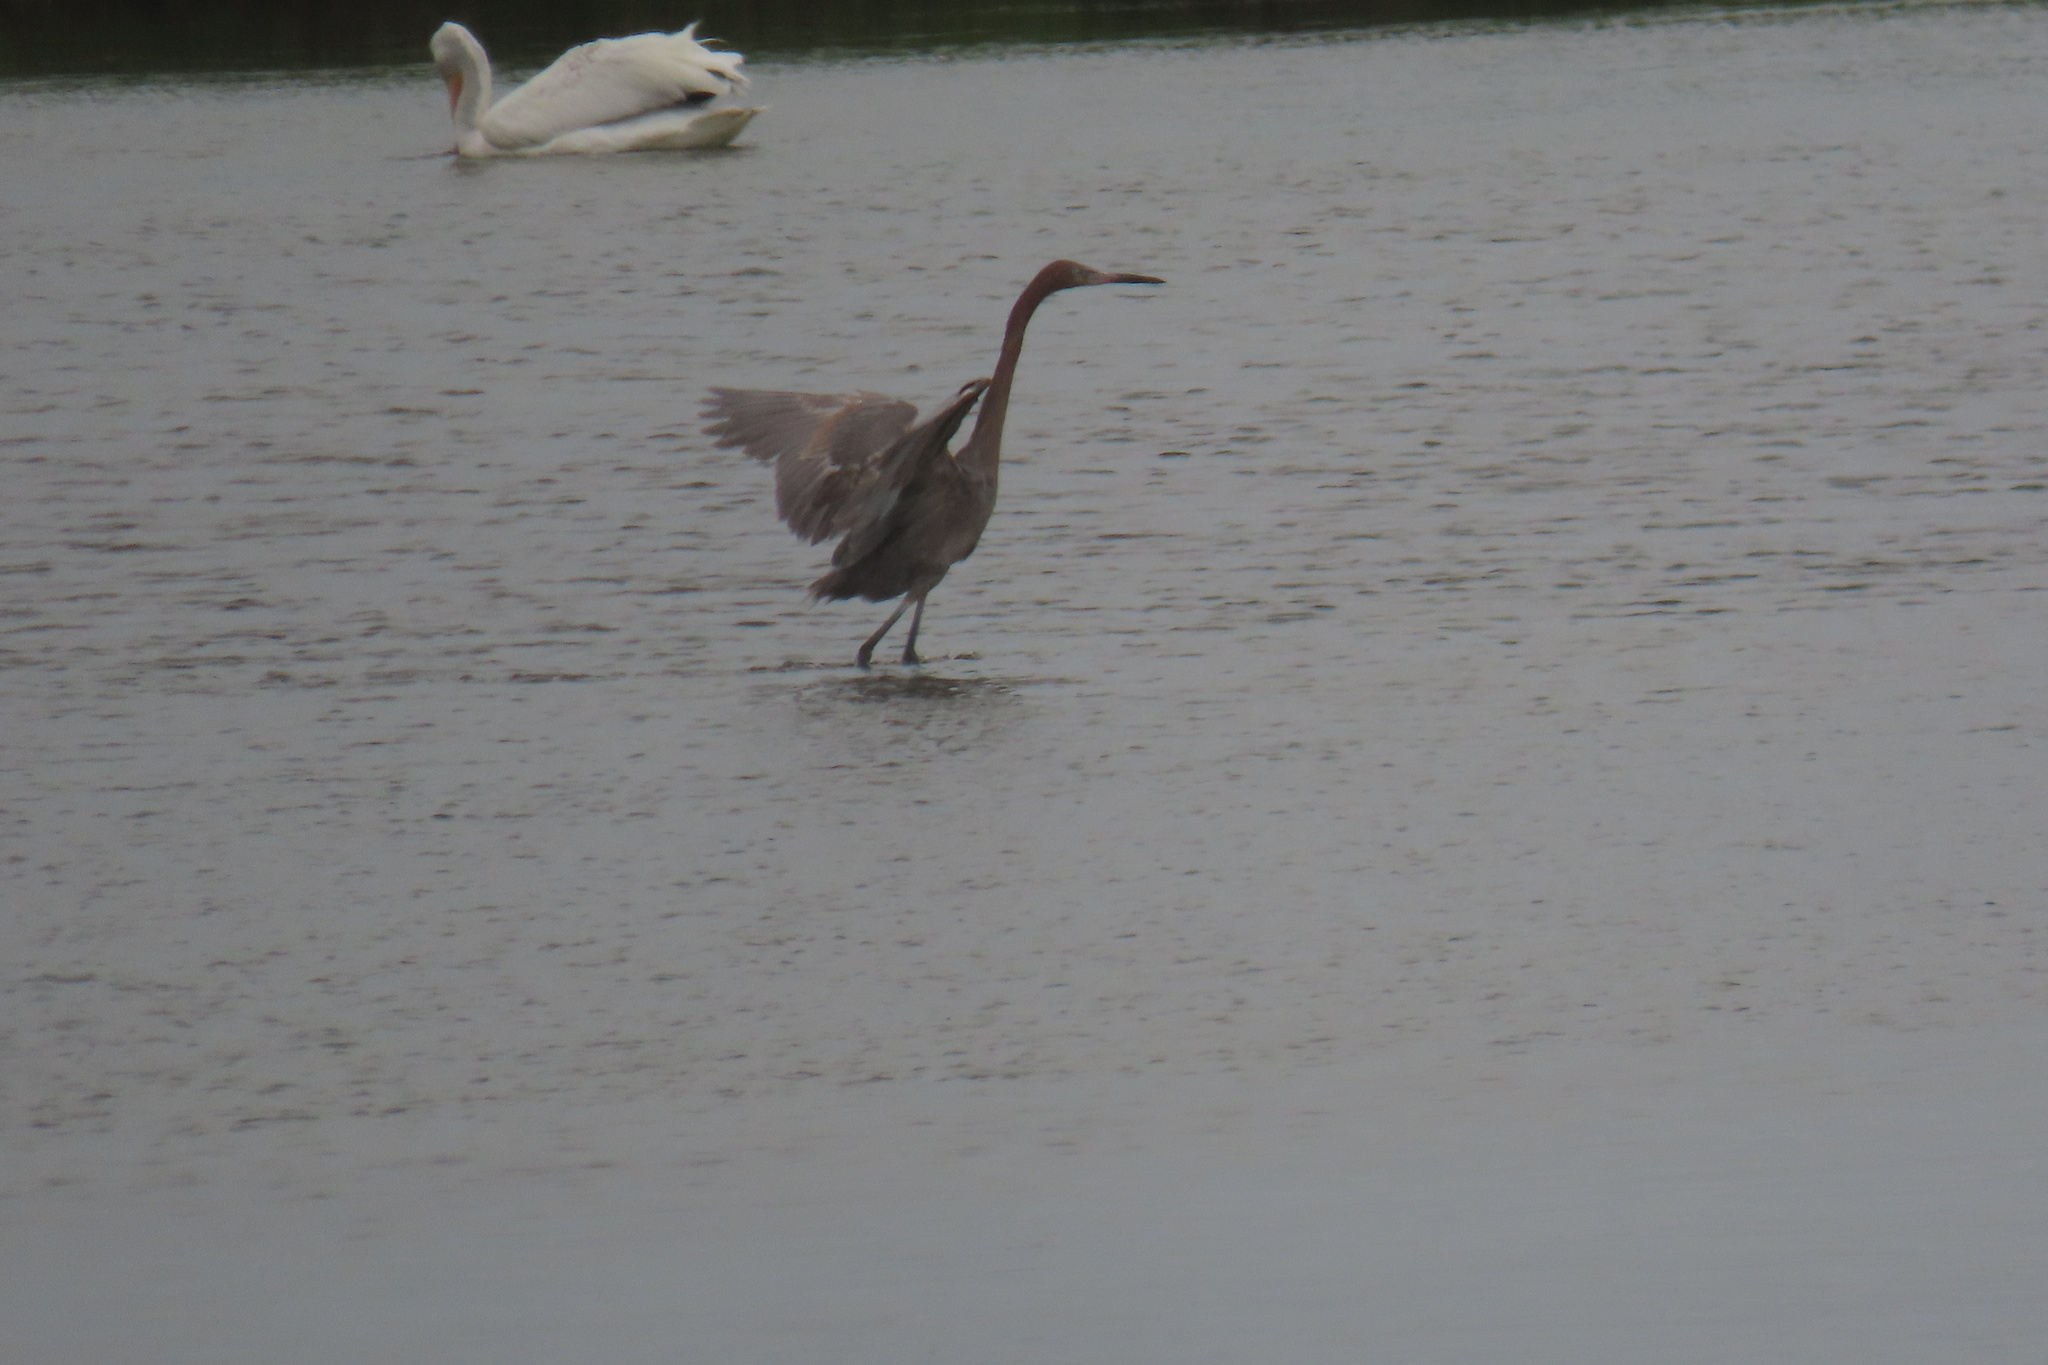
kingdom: Animalia
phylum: Chordata
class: Aves
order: Pelecaniformes
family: Ardeidae
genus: Egretta
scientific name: Egretta rufescens
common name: Reddish egret
